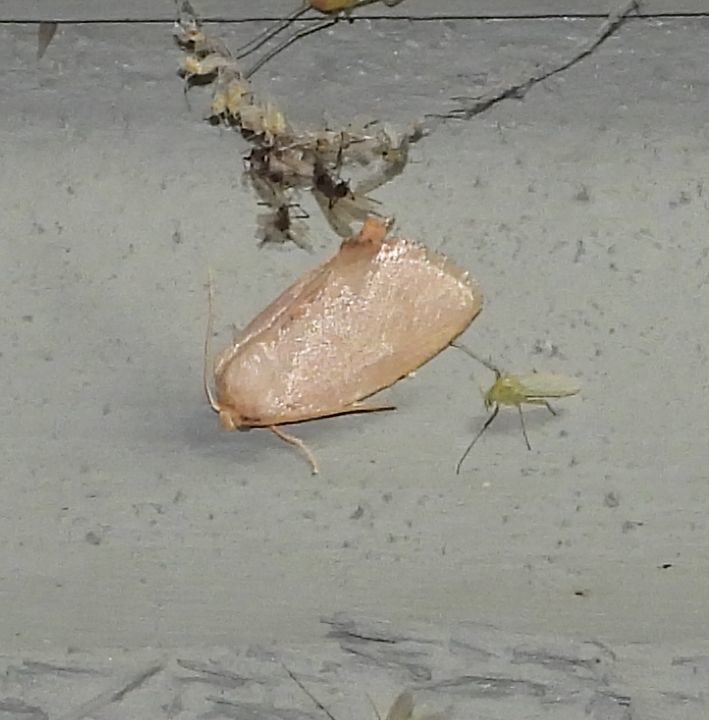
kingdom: Animalia
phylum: Arthropoda
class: Insecta
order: Lepidoptera
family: Limacodidae
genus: Tortricidia
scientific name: Tortricidia pallida
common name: Red-crossed button slug moth
